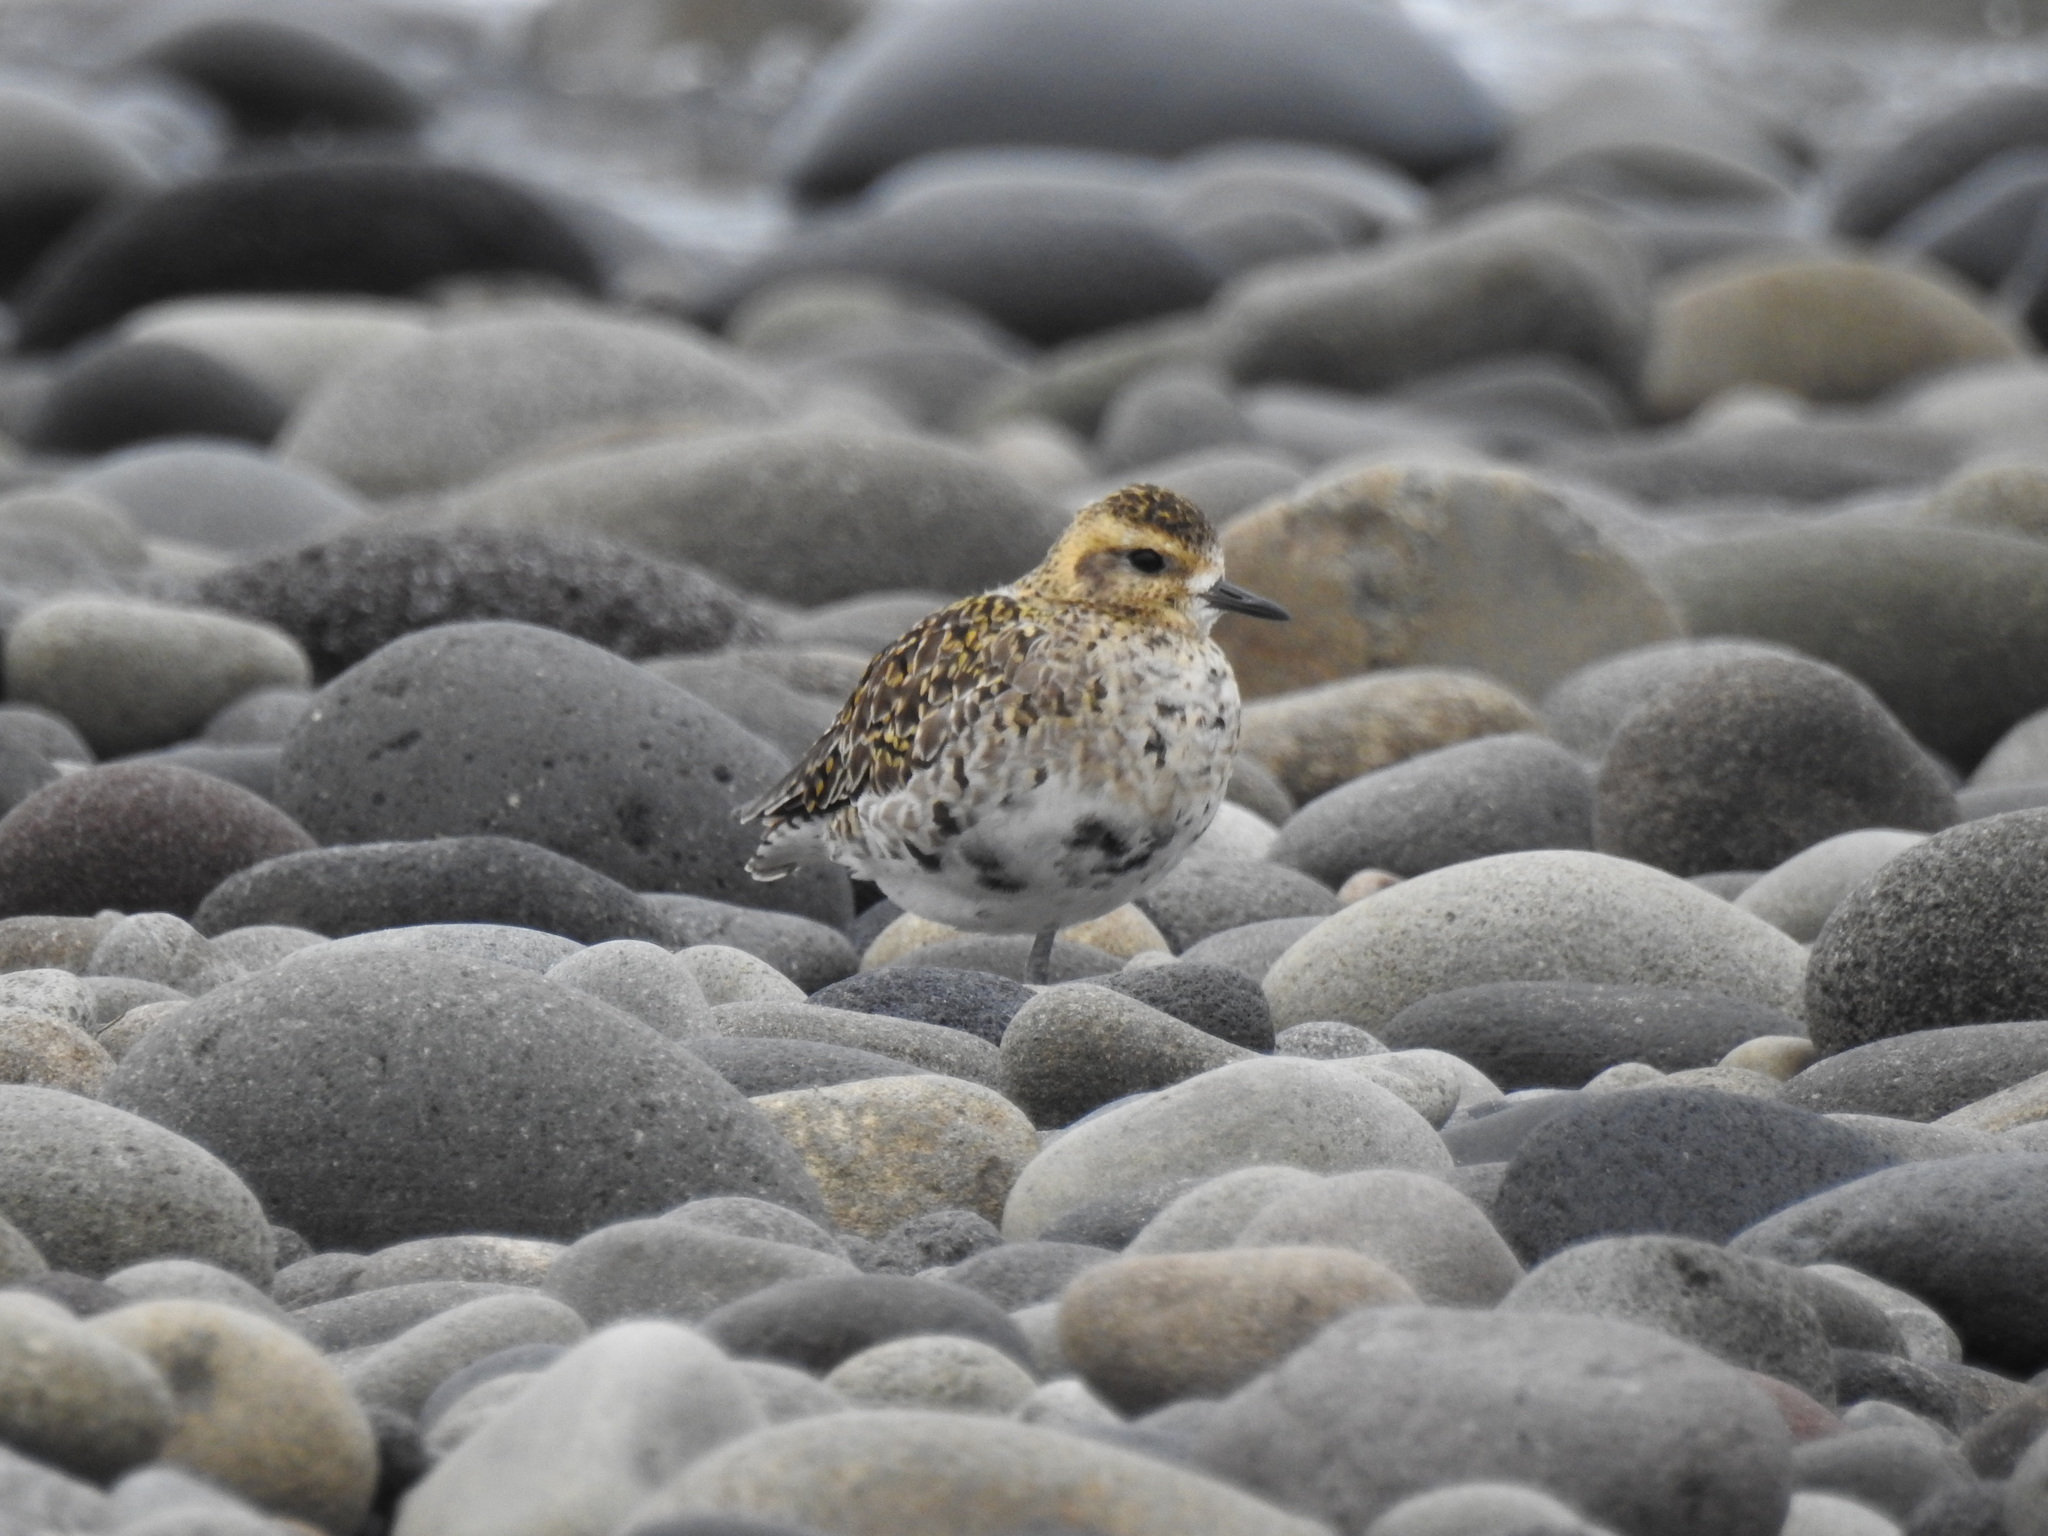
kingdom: Animalia
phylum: Chordata
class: Aves
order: Charadriiformes
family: Charadriidae
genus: Pluvialis
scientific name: Pluvialis fulva
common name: Pacific golden plover
